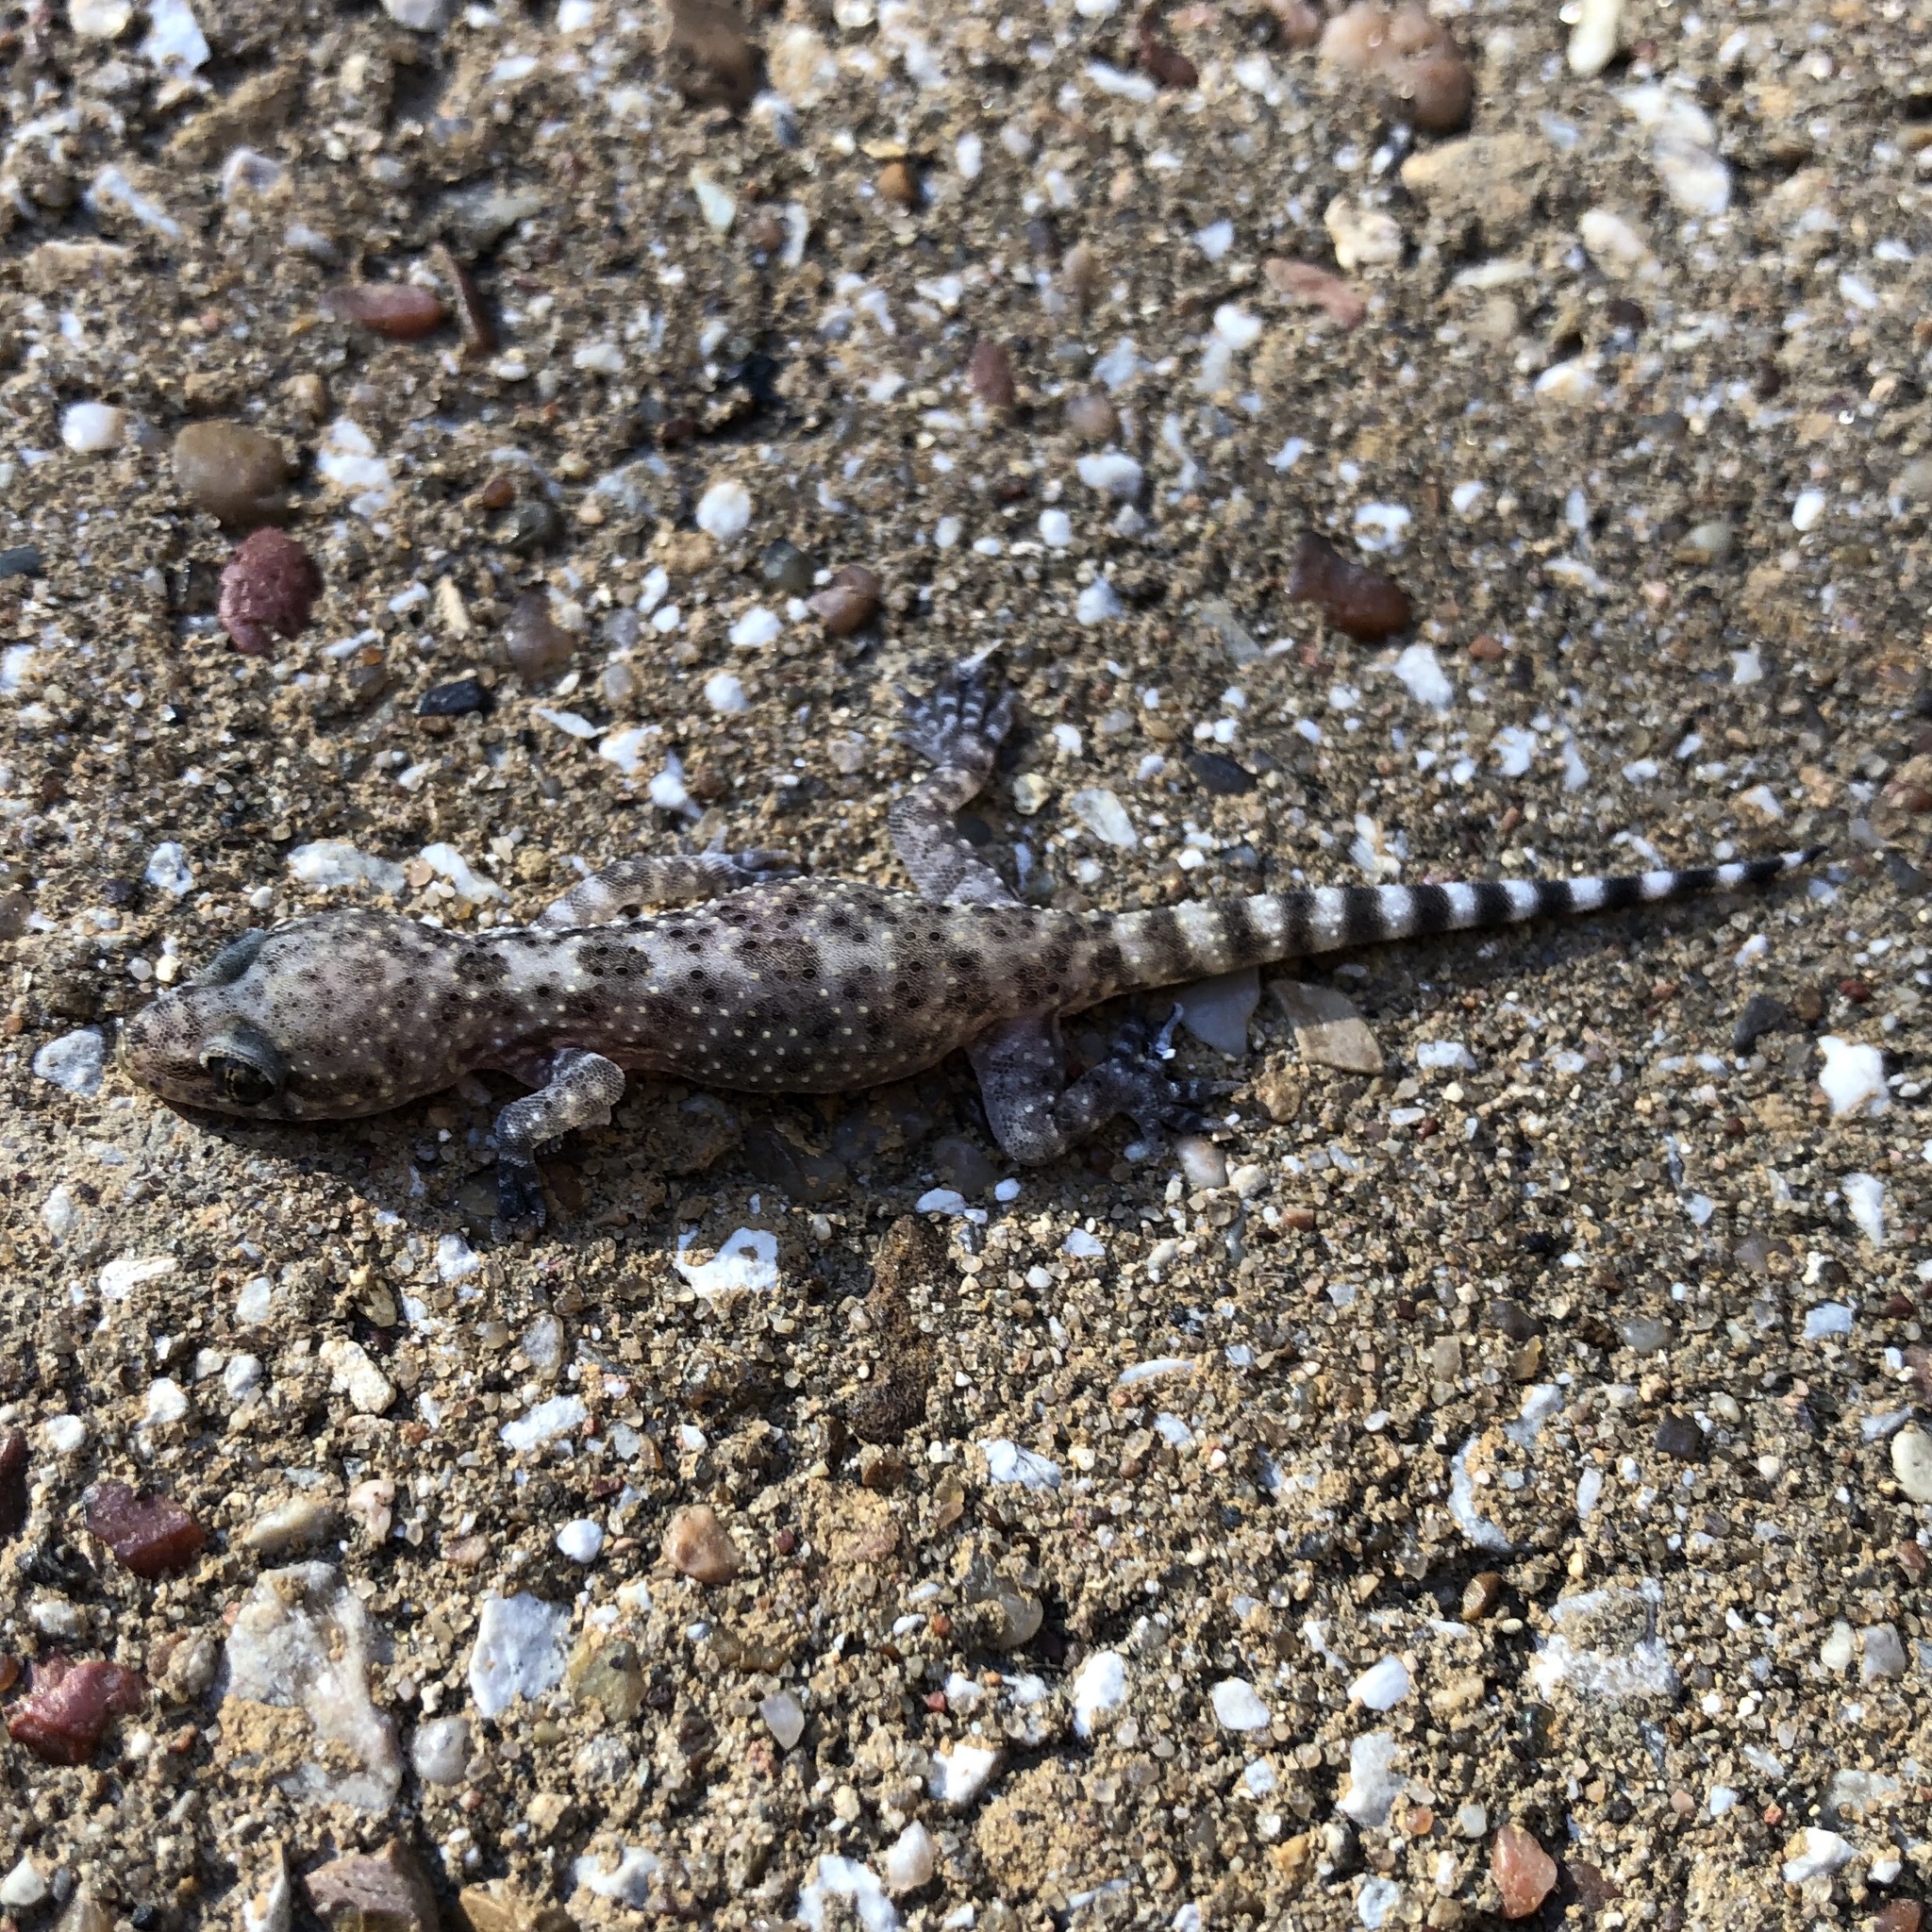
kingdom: Animalia
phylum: Chordata
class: Squamata
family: Gekkonidae
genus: Hemidactylus
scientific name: Hemidactylus turcicus
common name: Turkish gecko
